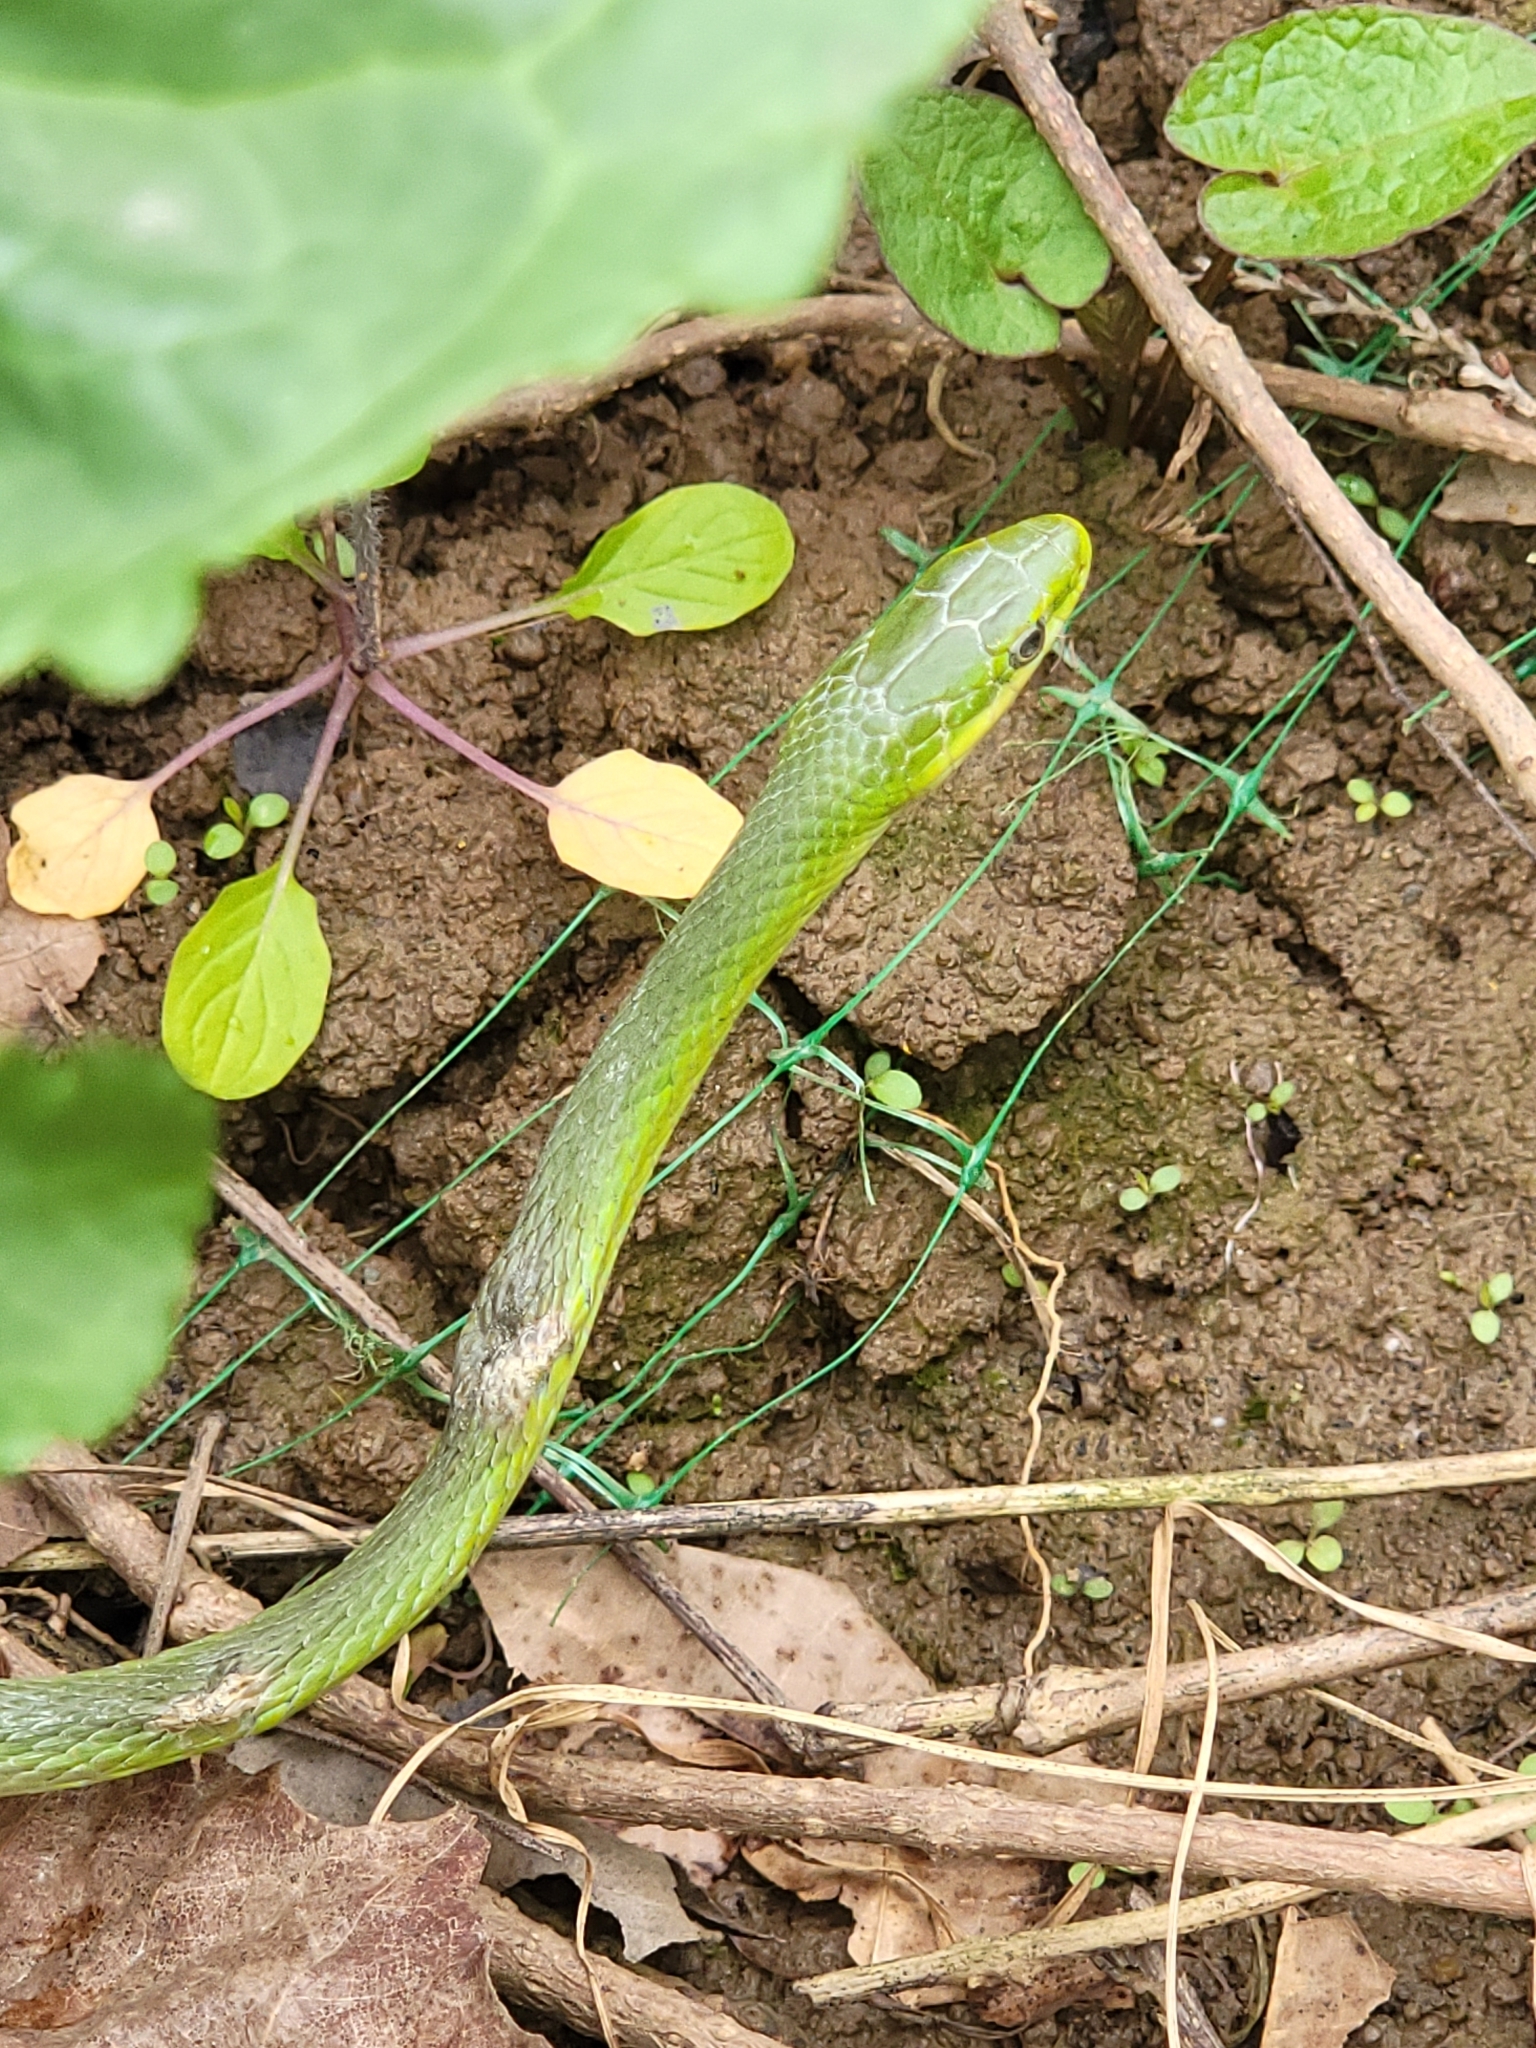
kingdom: Animalia
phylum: Chordata
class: Squamata
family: Colubridae
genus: Opheodrys
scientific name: Opheodrys aestivus
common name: Rough greensnake
